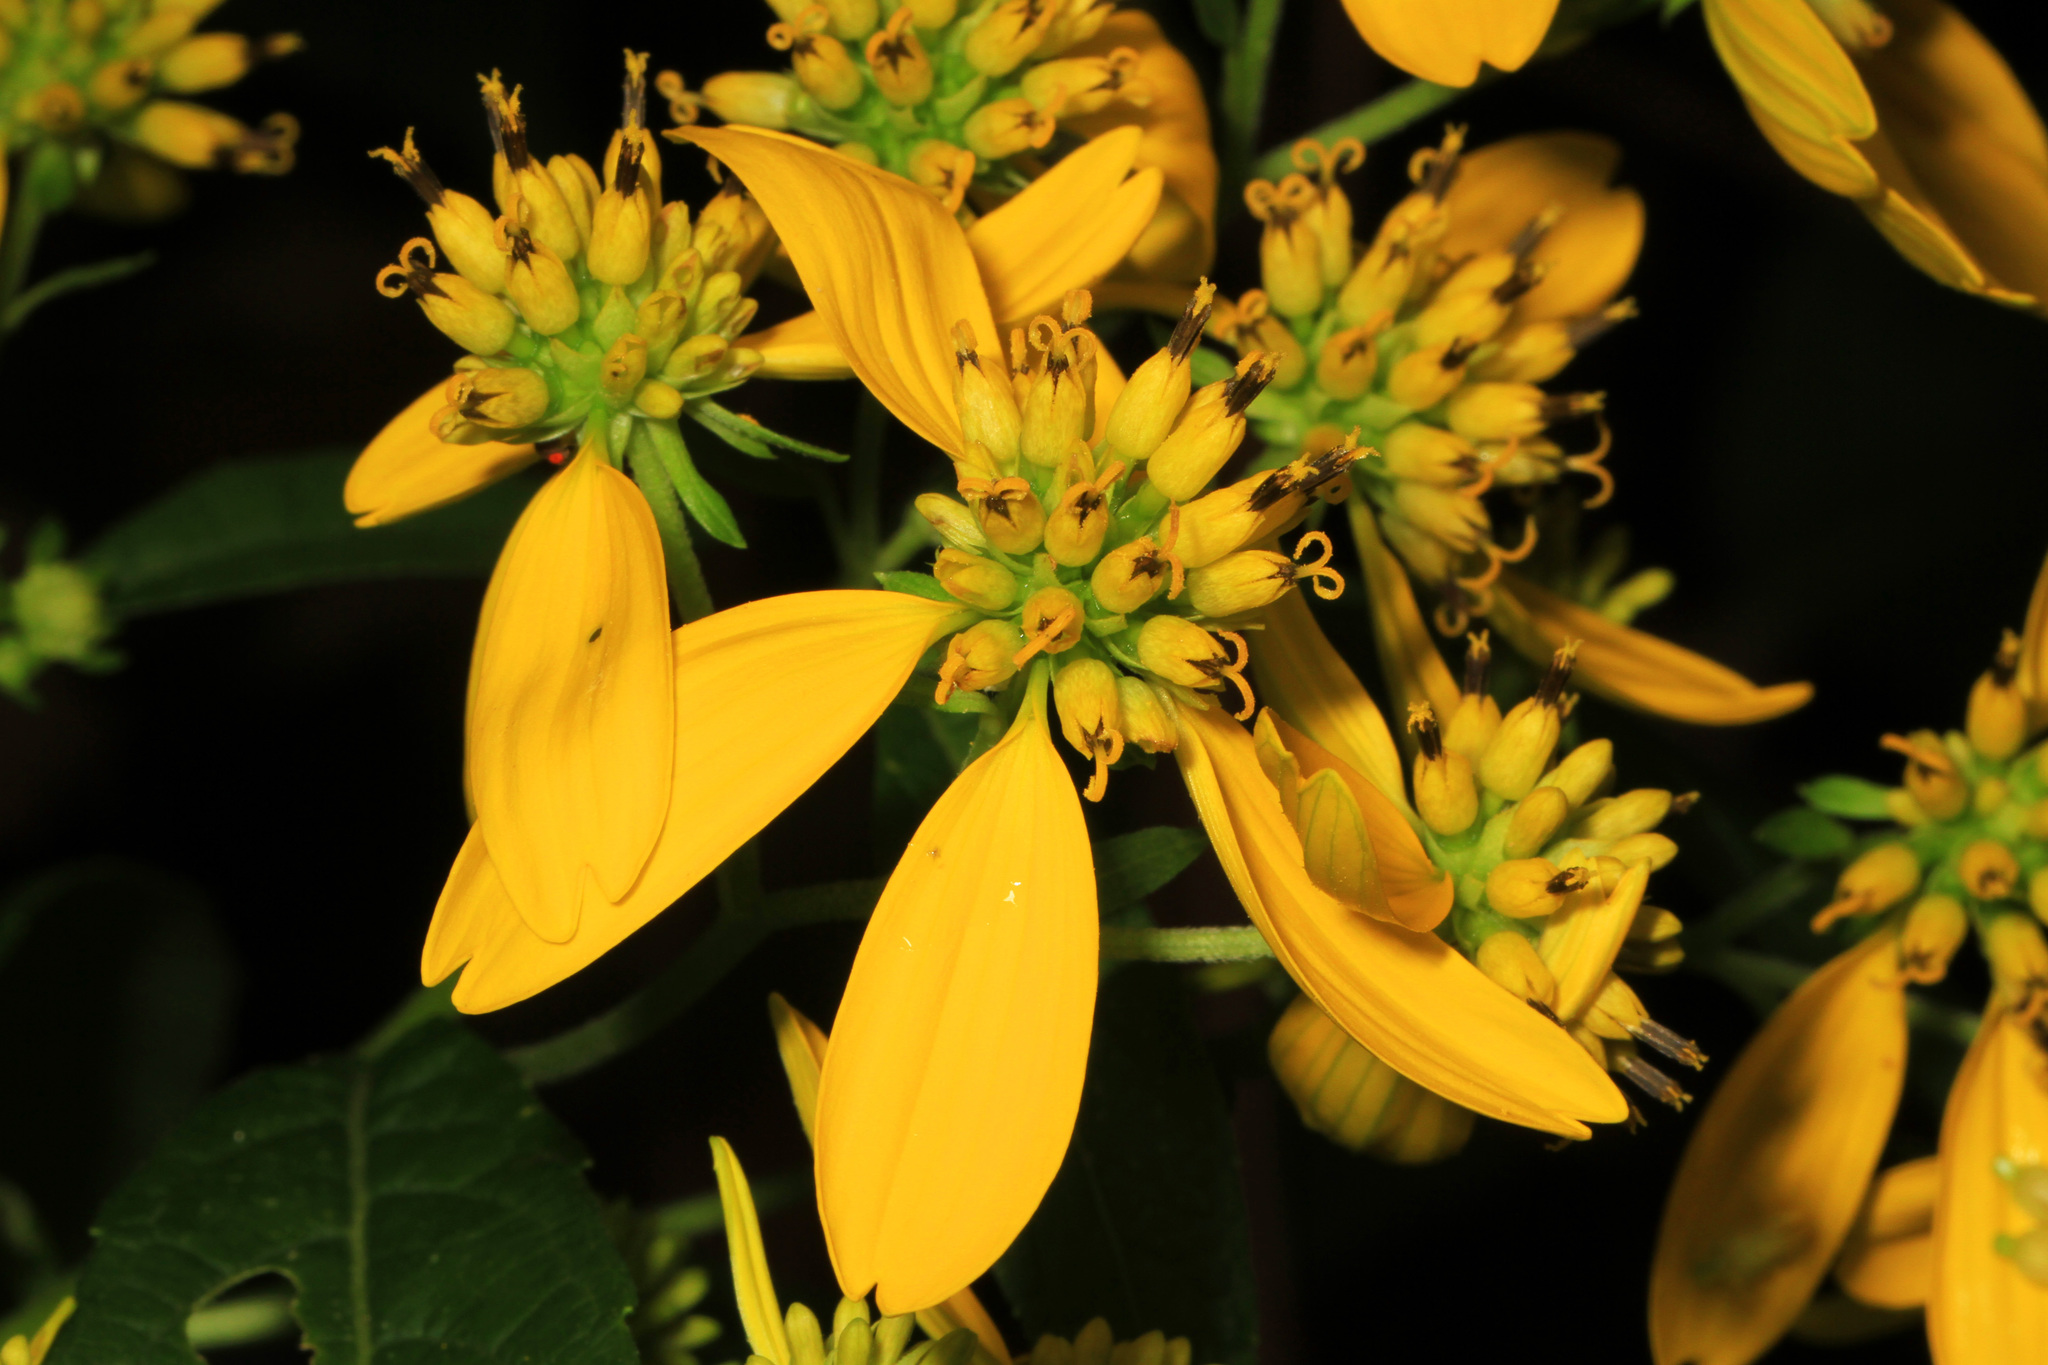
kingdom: Plantae
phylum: Tracheophyta
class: Magnoliopsida
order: Asterales
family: Asteraceae
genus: Verbesina
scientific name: Verbesina alternifolia
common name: Wingstem
